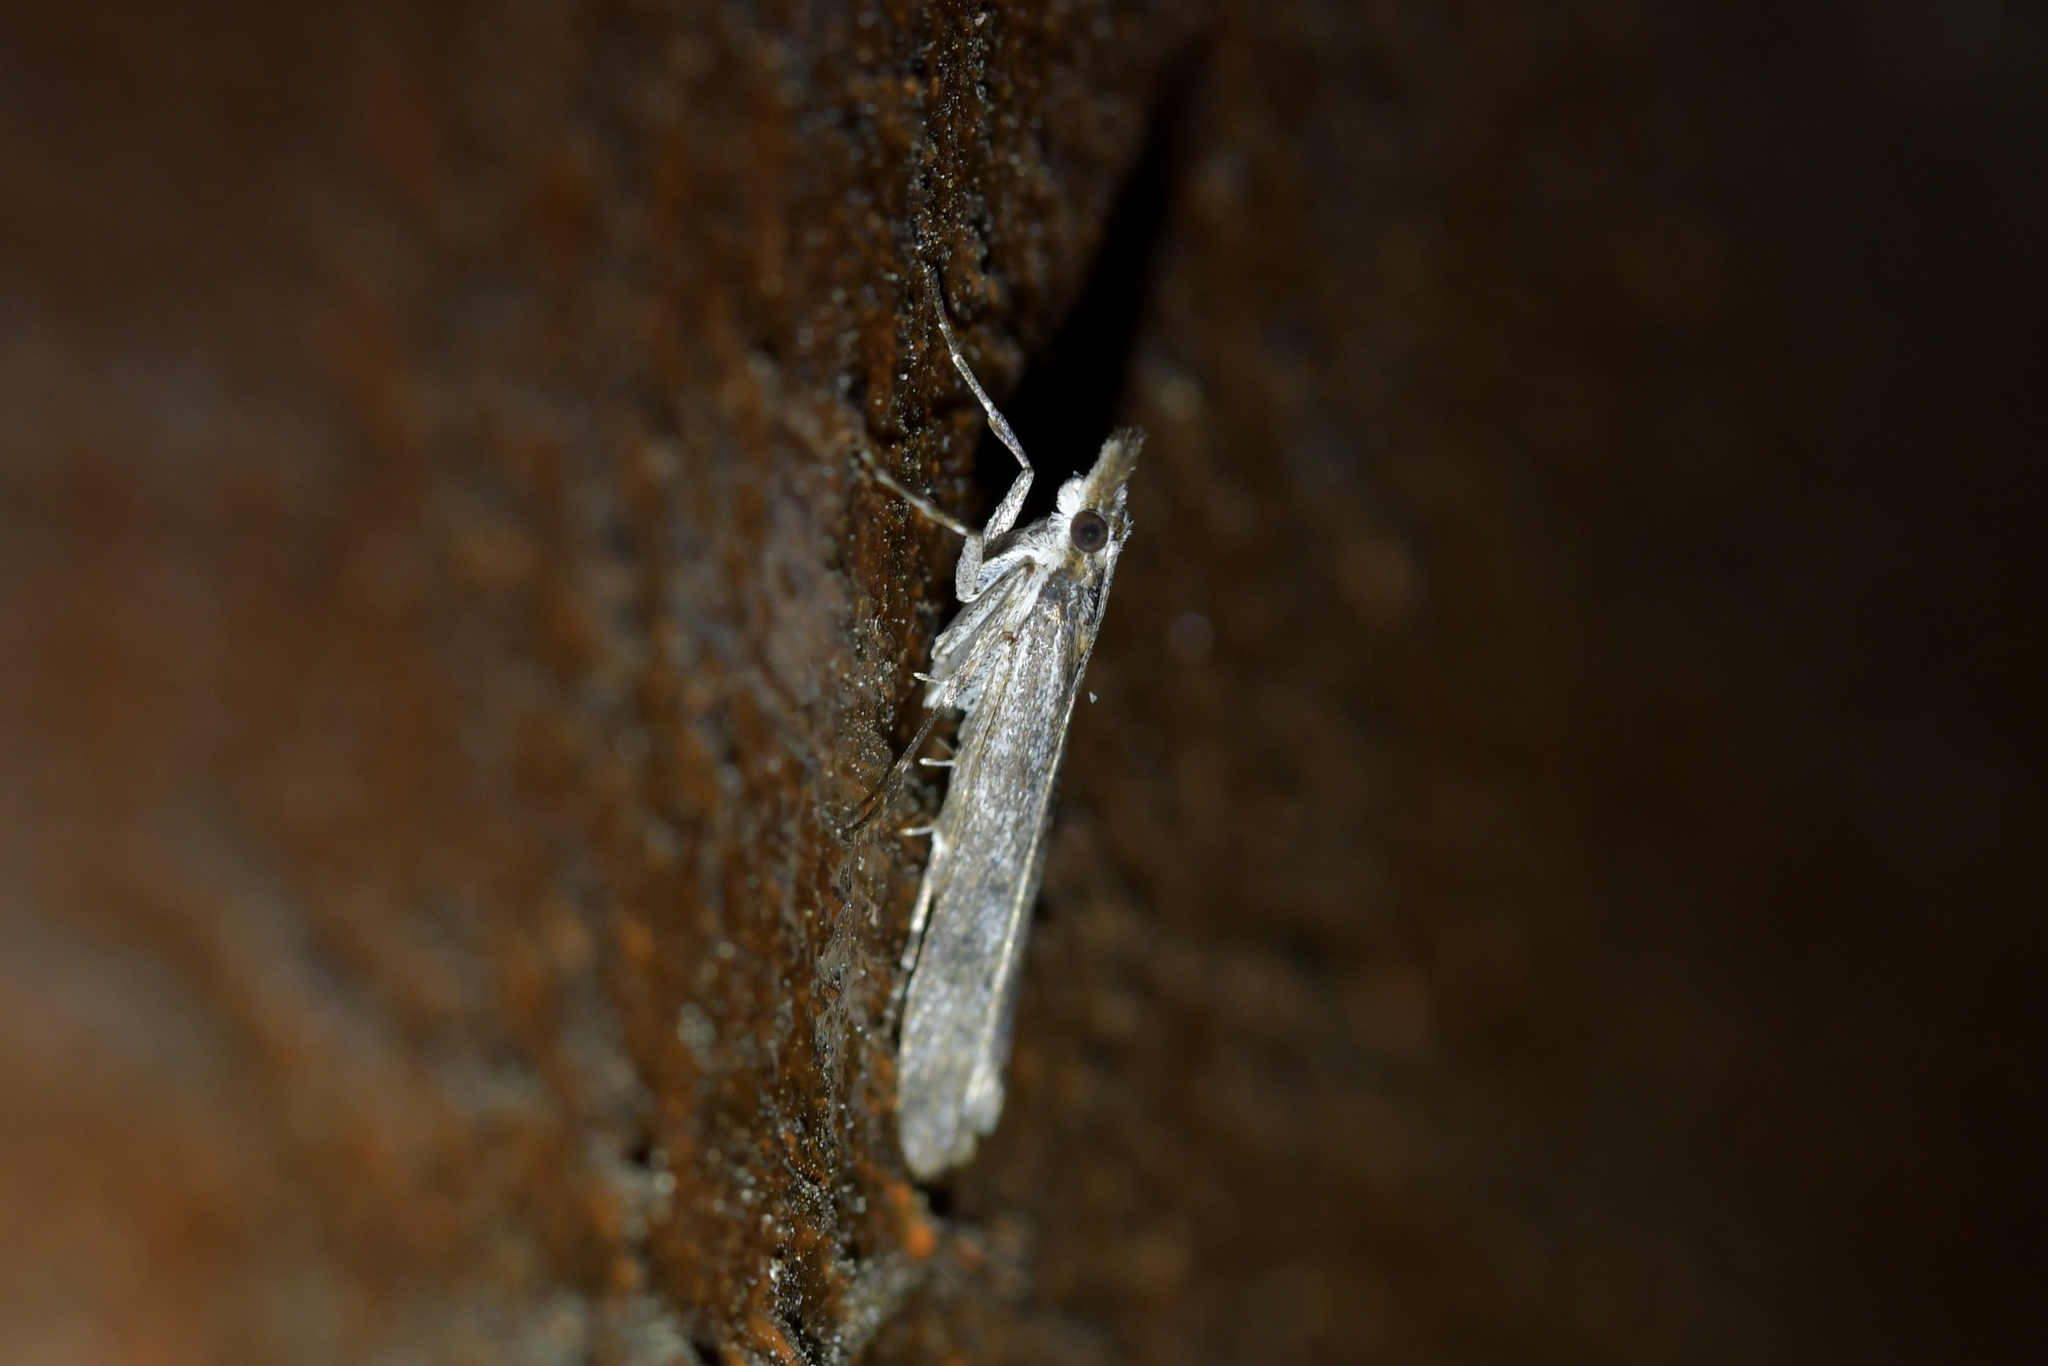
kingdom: Animalia
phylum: Arthropoda
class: Insecta
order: Lepidoptera
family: Crambidae
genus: Eudonia
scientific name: Eudonia leptalea
